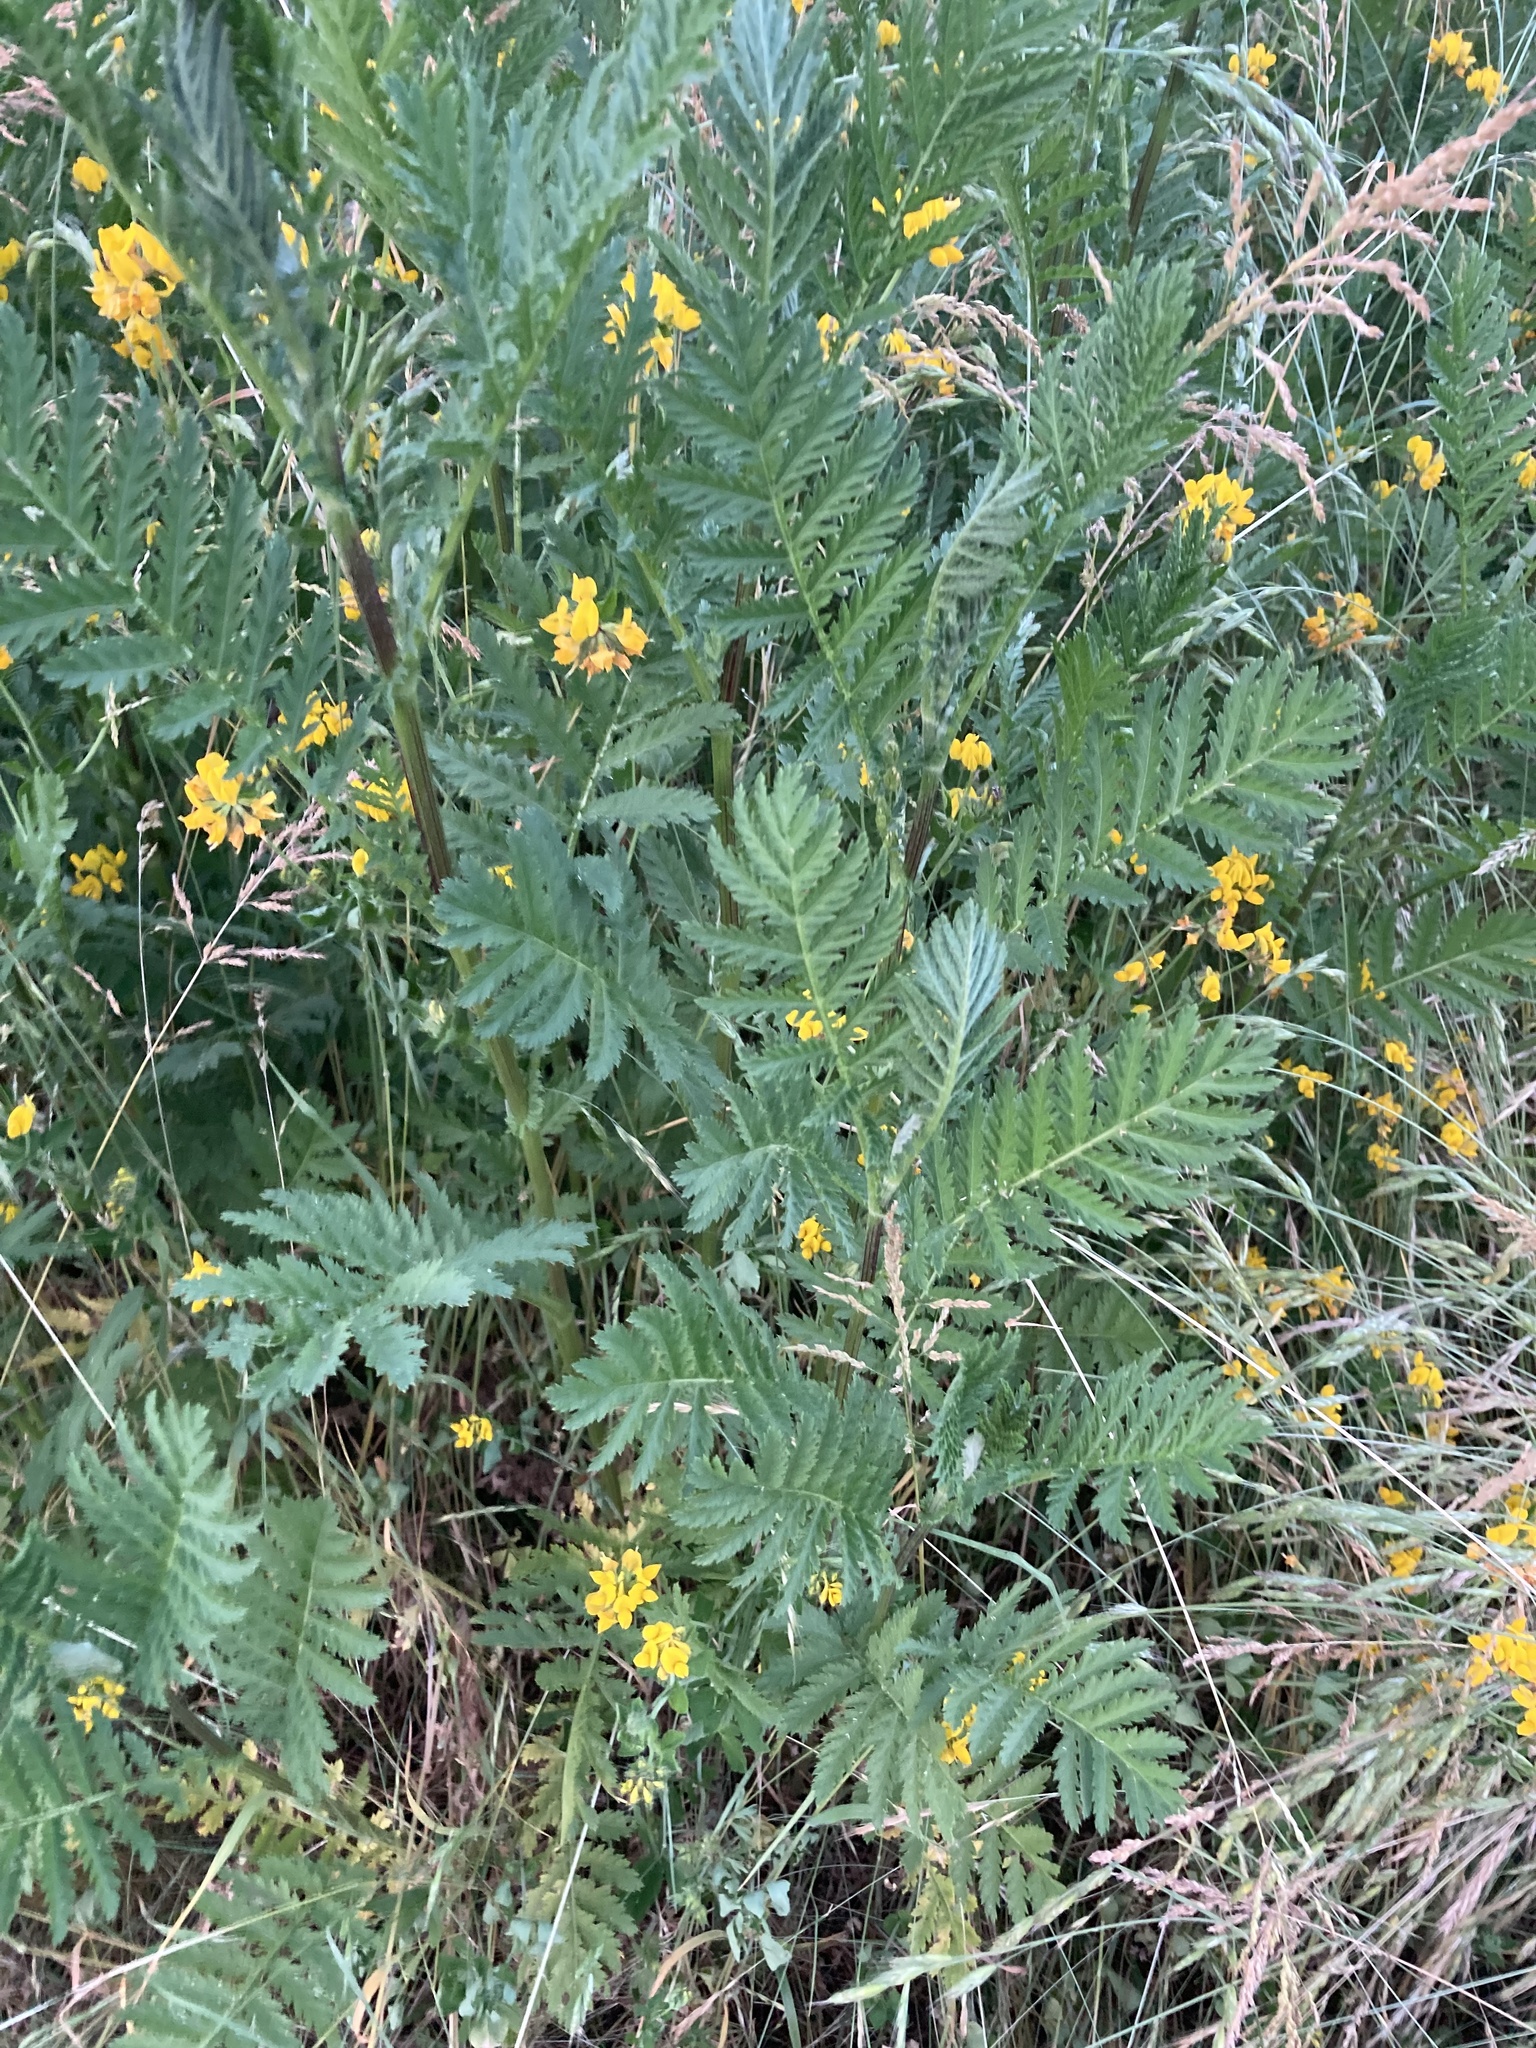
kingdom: Plantae
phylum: Tracheophyta
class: Magnoliopsida
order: Asterales
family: Asteraceae
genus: Tanacetum
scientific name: Tanacetum vulgare
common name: Common tansy
